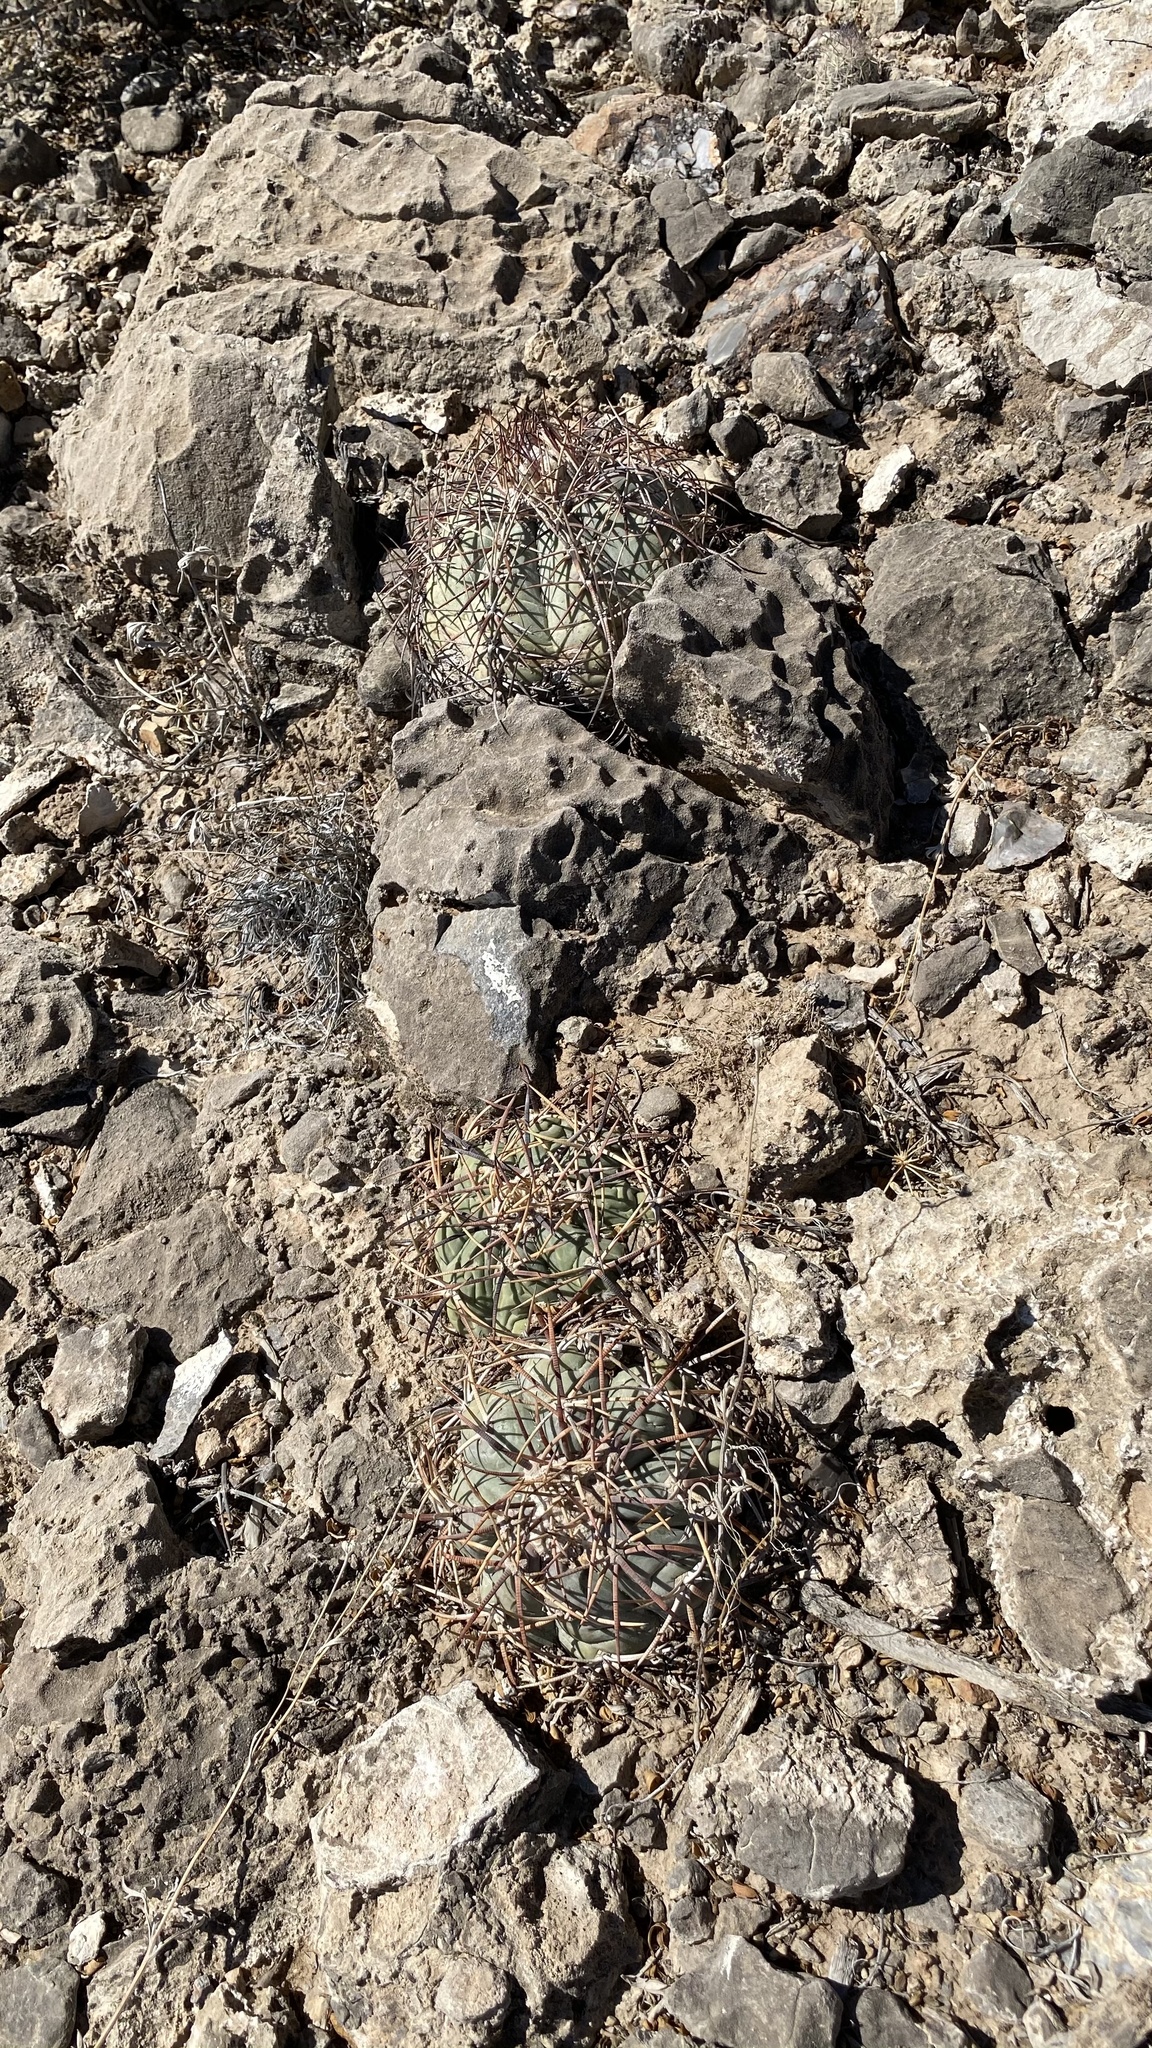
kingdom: Plantae
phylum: Tracheophyta
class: Magnoliopsida
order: Caryophyllales
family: Cactaceae
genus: Echinocactus
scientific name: Echinocactus horizonthalonius
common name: Devilshead
